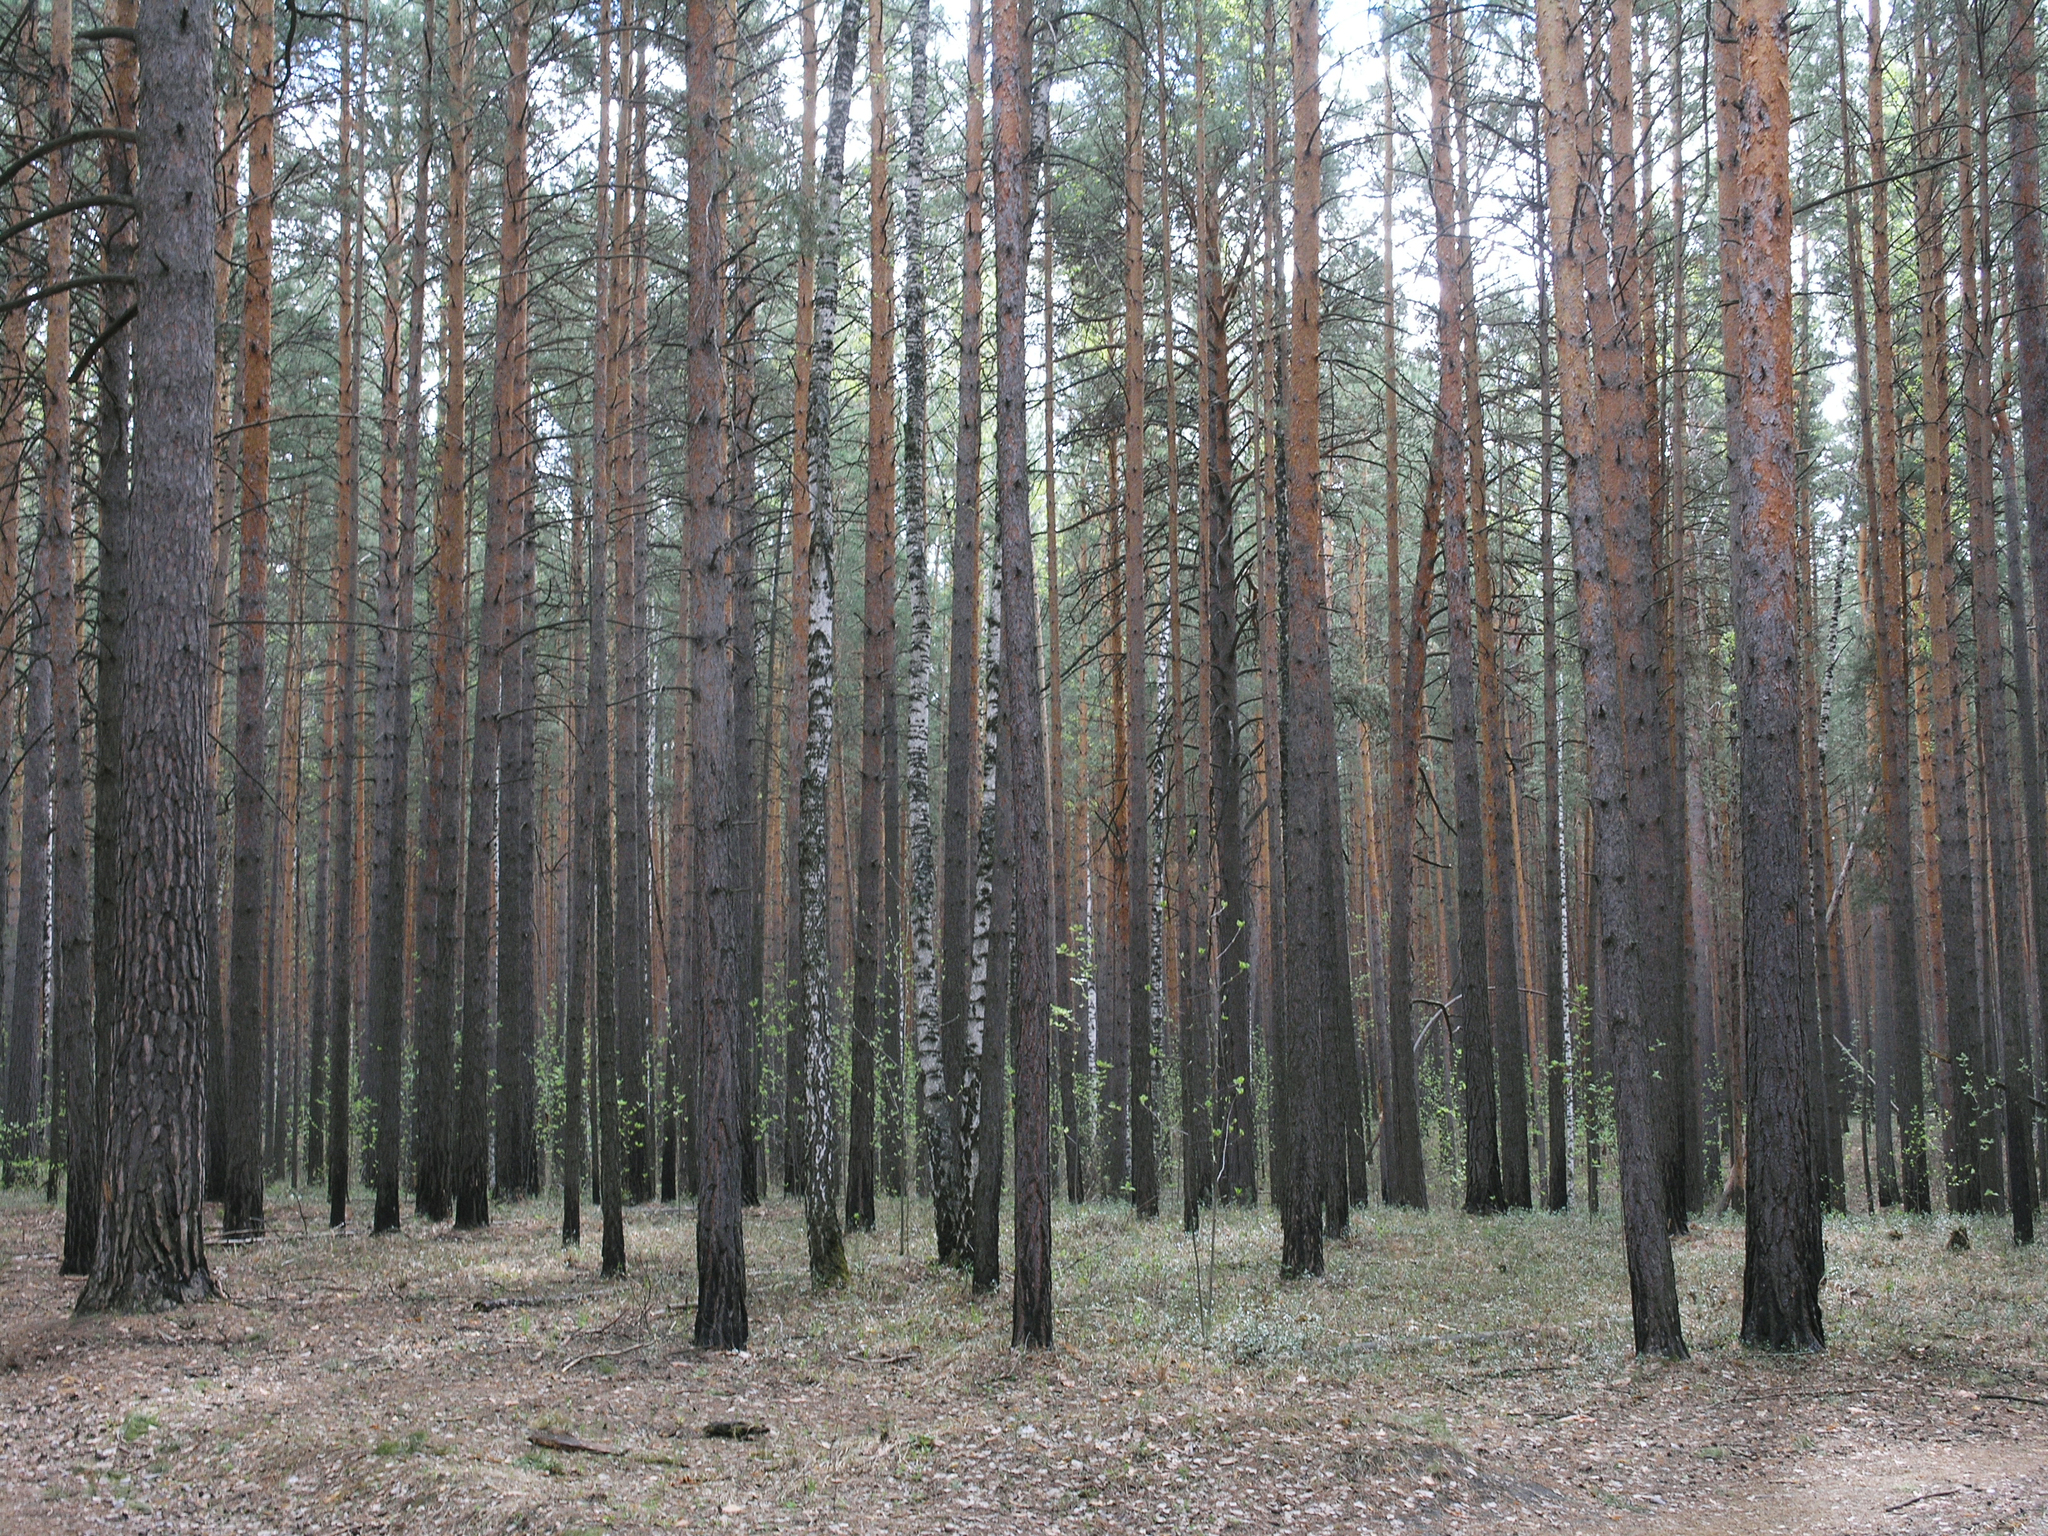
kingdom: Plantae
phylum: Tracheophyta
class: Pinopsida
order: Pinales
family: Pinaceae
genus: Pinus
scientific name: Pinus sylvestris
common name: Scots pine
